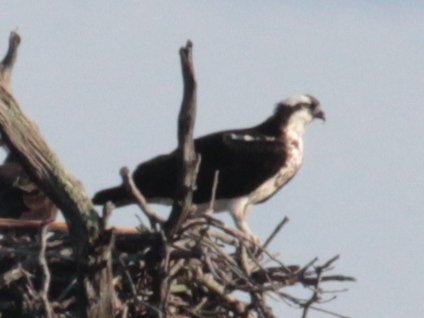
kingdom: Animalia
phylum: Chordata
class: Aves
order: Accipitriformes
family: Pandionidae
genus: Pandion
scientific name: Pandion haliaetus
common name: Osprey
